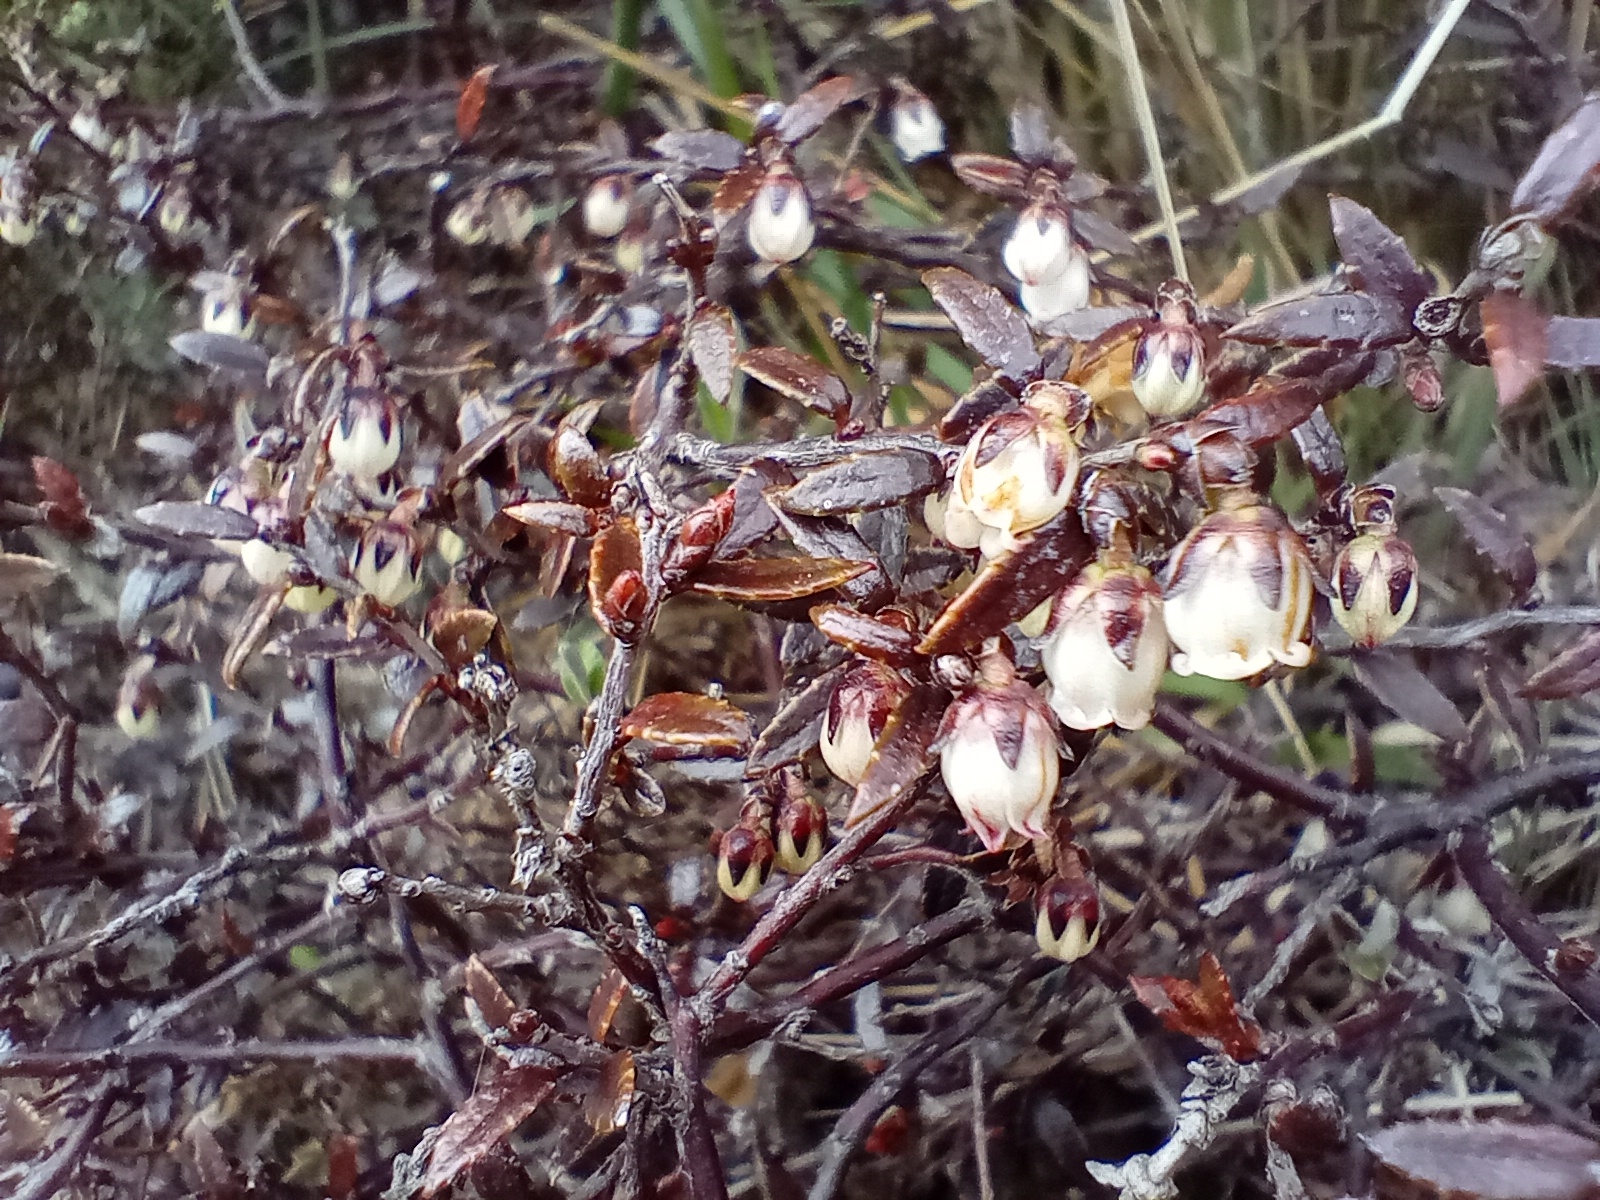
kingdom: Plantae
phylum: Tracheophyta
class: Magnoliopsida
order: Ericales
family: Ericaceae
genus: Gaultheria
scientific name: Gaultheria macrostigma
